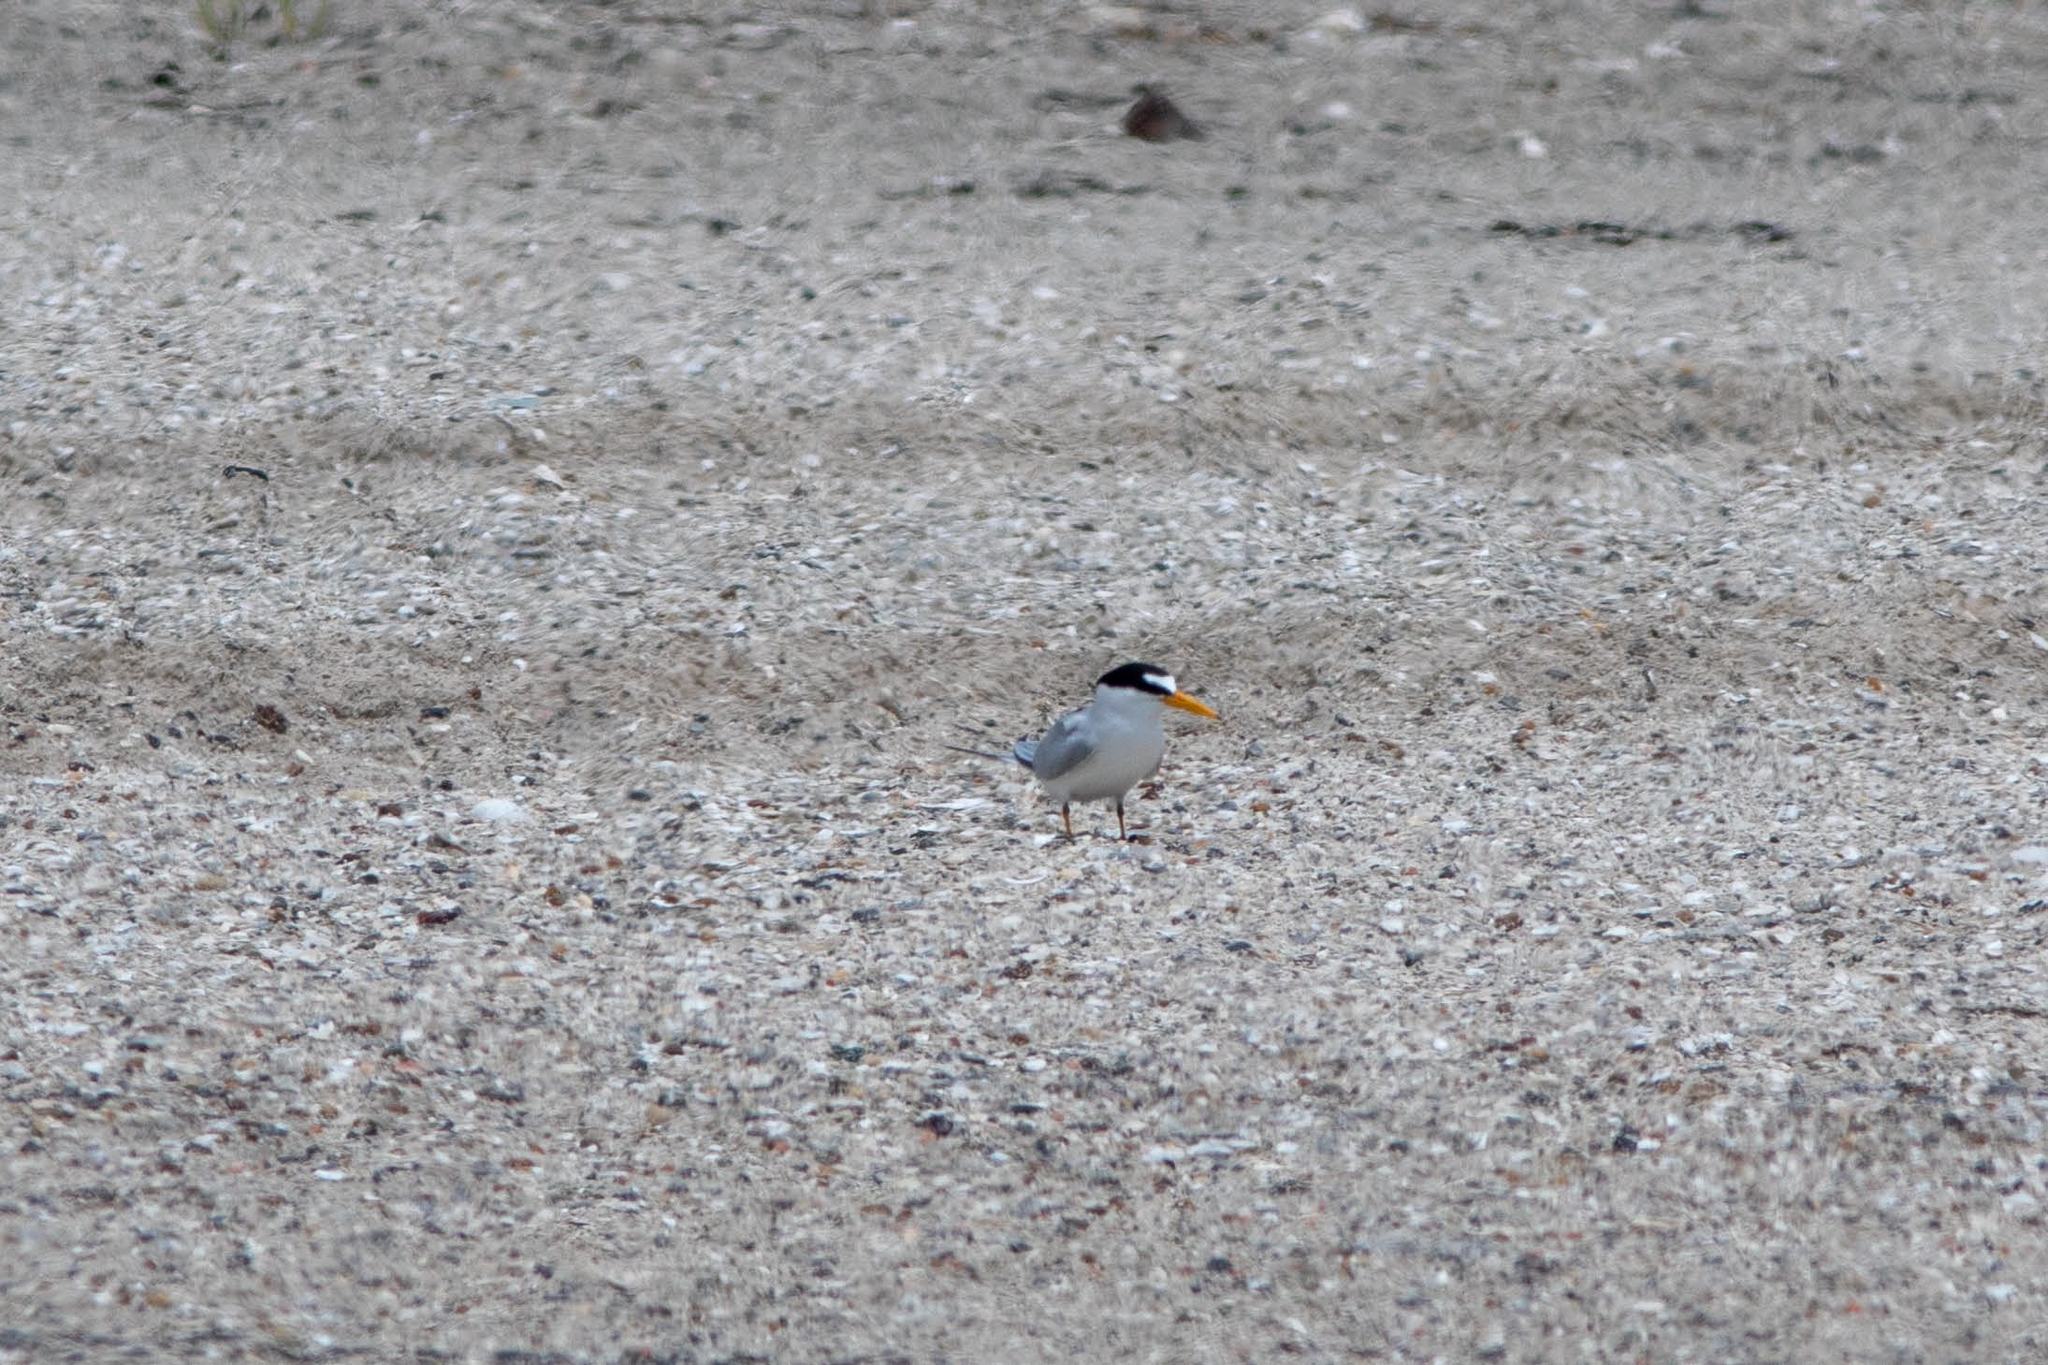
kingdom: Animalia
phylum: Chordata
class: Aves
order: Charadriiformes
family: Laridae
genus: Sternula
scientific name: Sternula antillarum
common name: Least tern
